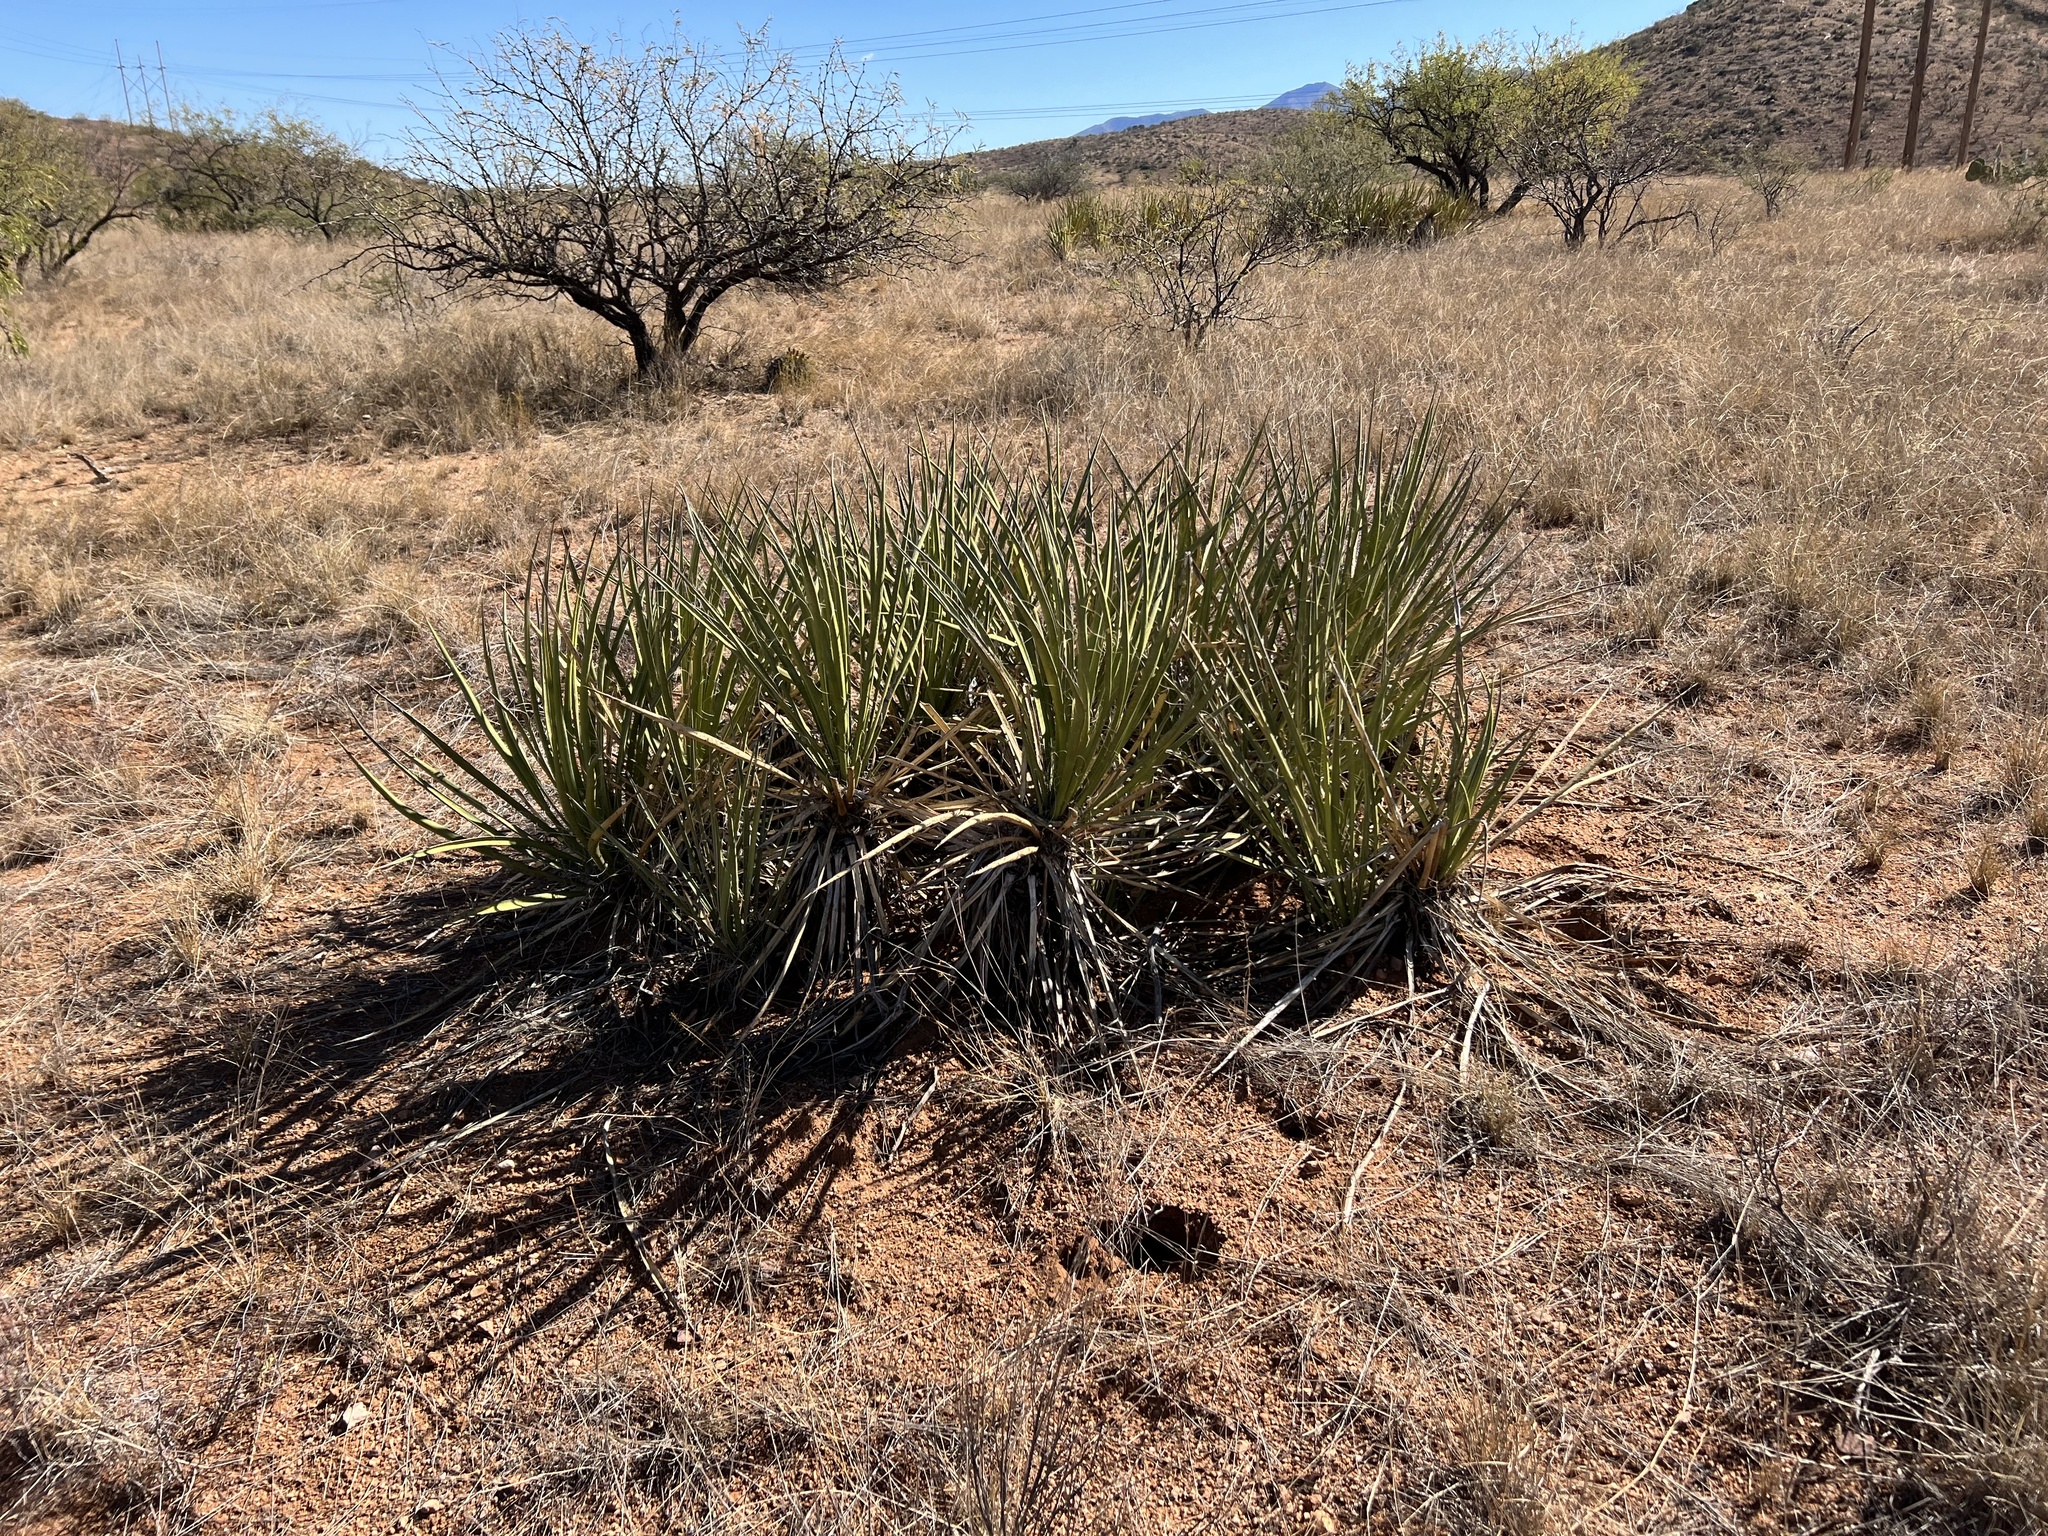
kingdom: Plantae
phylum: Tracheophyta
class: Liliopsida
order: Asparagales
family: Asparagaceae
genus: Yucca
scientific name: Yucca baccata
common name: Banana yucca
